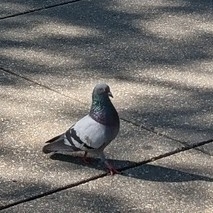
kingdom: Animalia
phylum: Chordata
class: Aves
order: Columbiformes
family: Columbidae
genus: Columba
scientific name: Columba livia
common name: Rock pigeon
